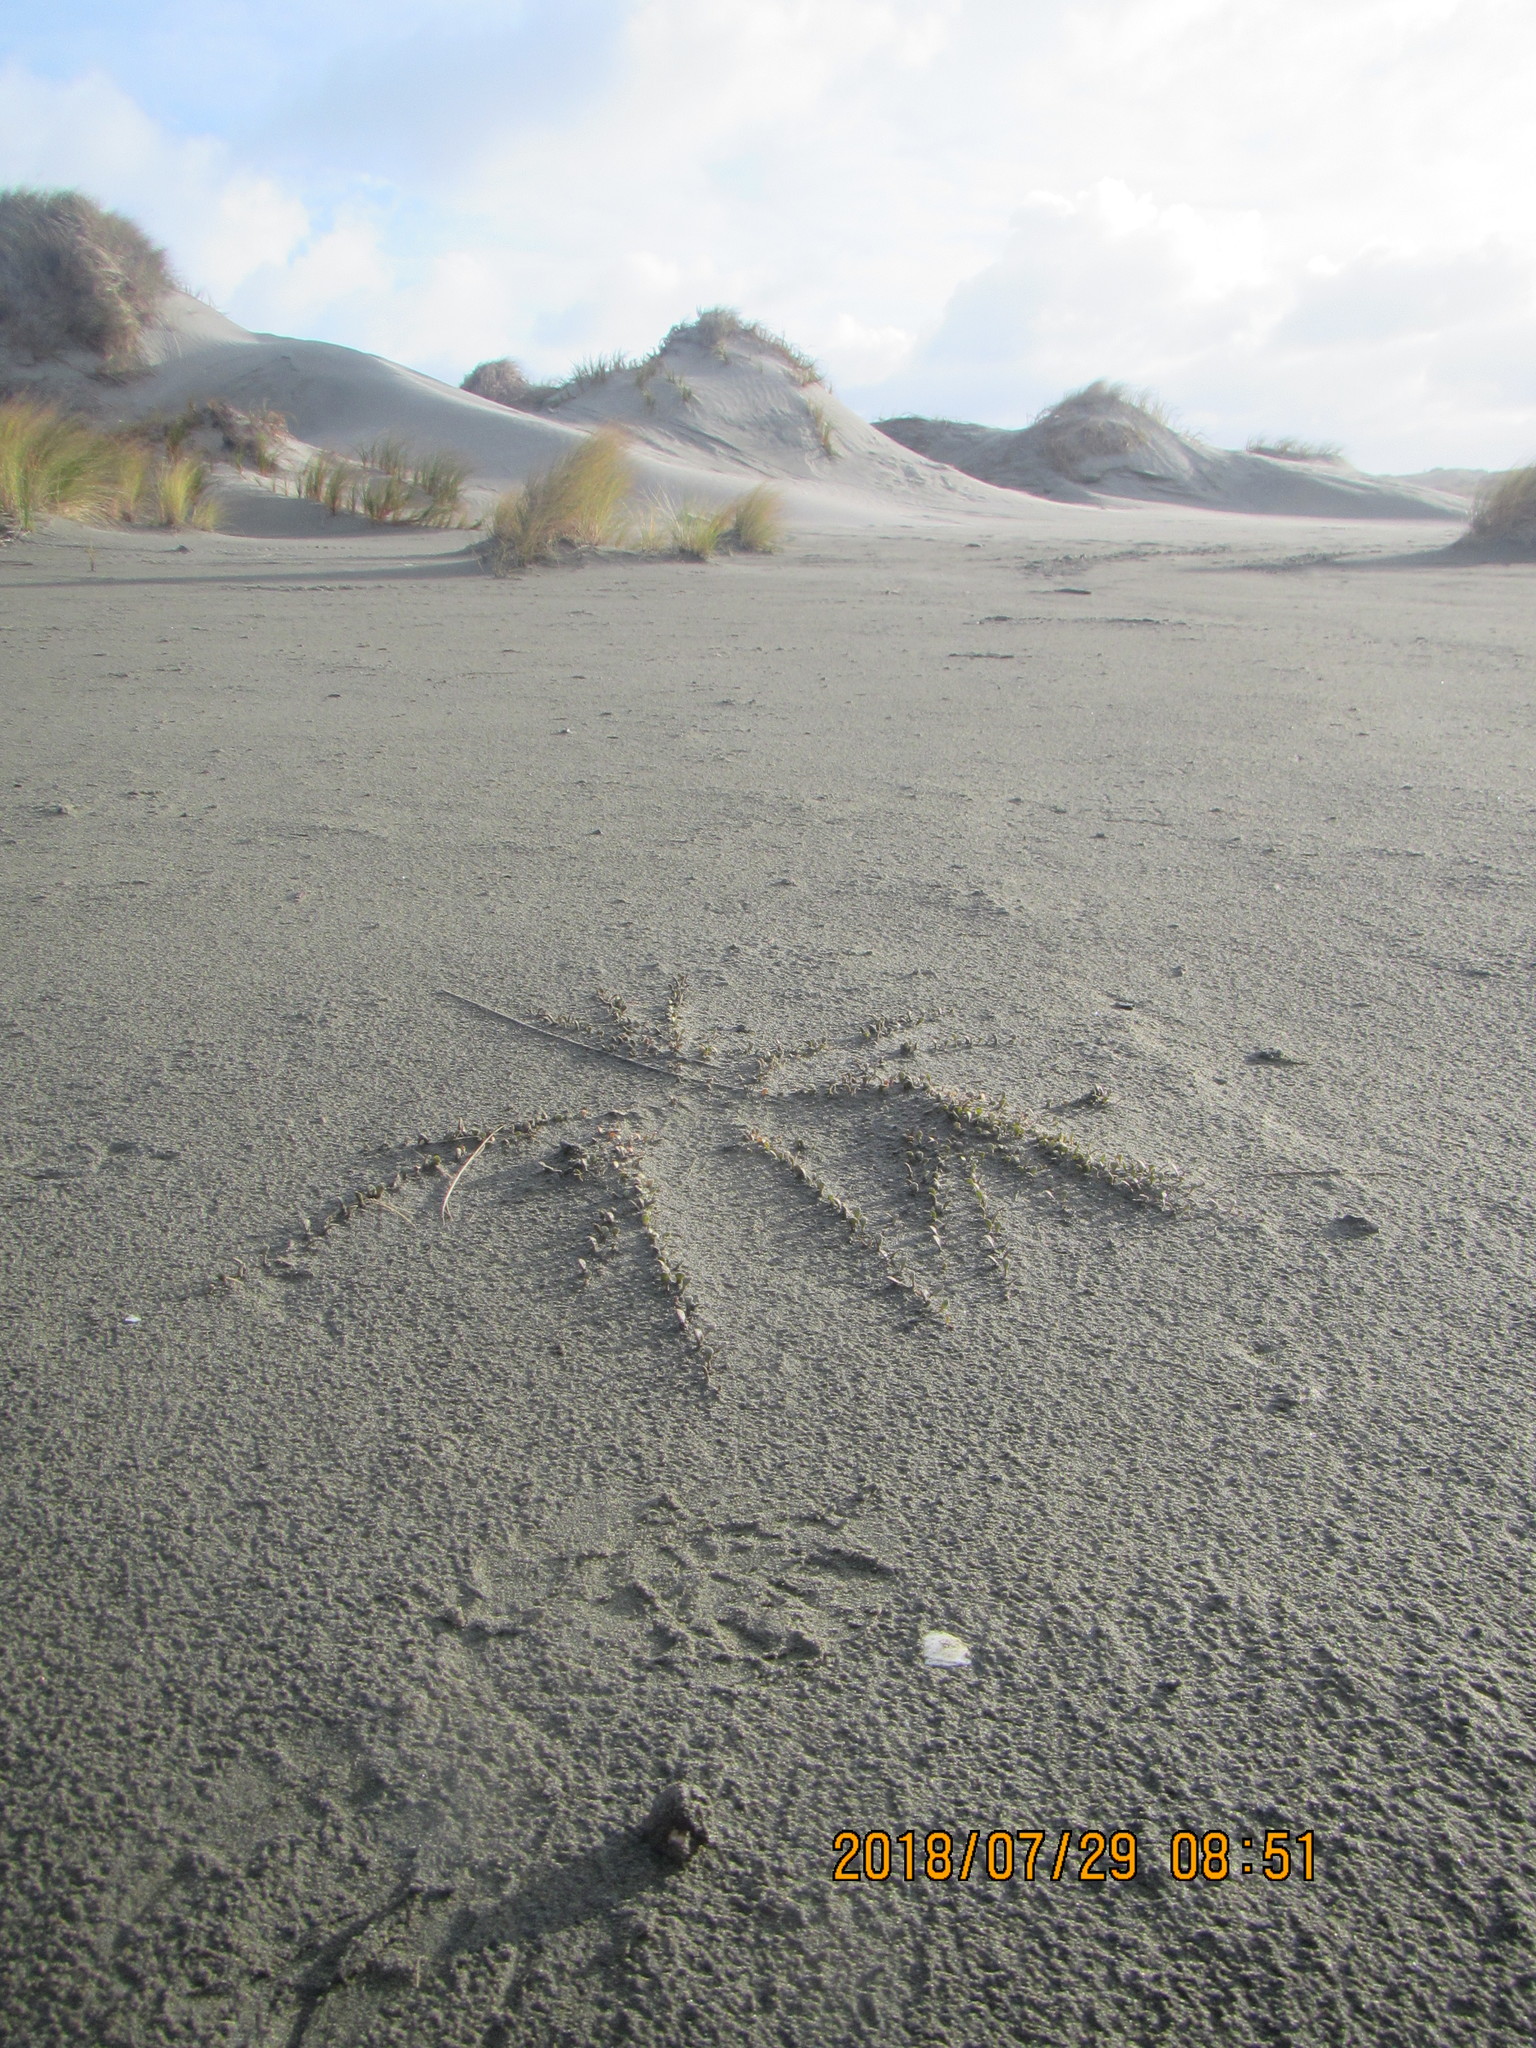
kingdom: Plantae
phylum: Tracheophyta
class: Magnoliopsida
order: Ericales
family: Primulaceae
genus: Samolus
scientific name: Samolus repens
